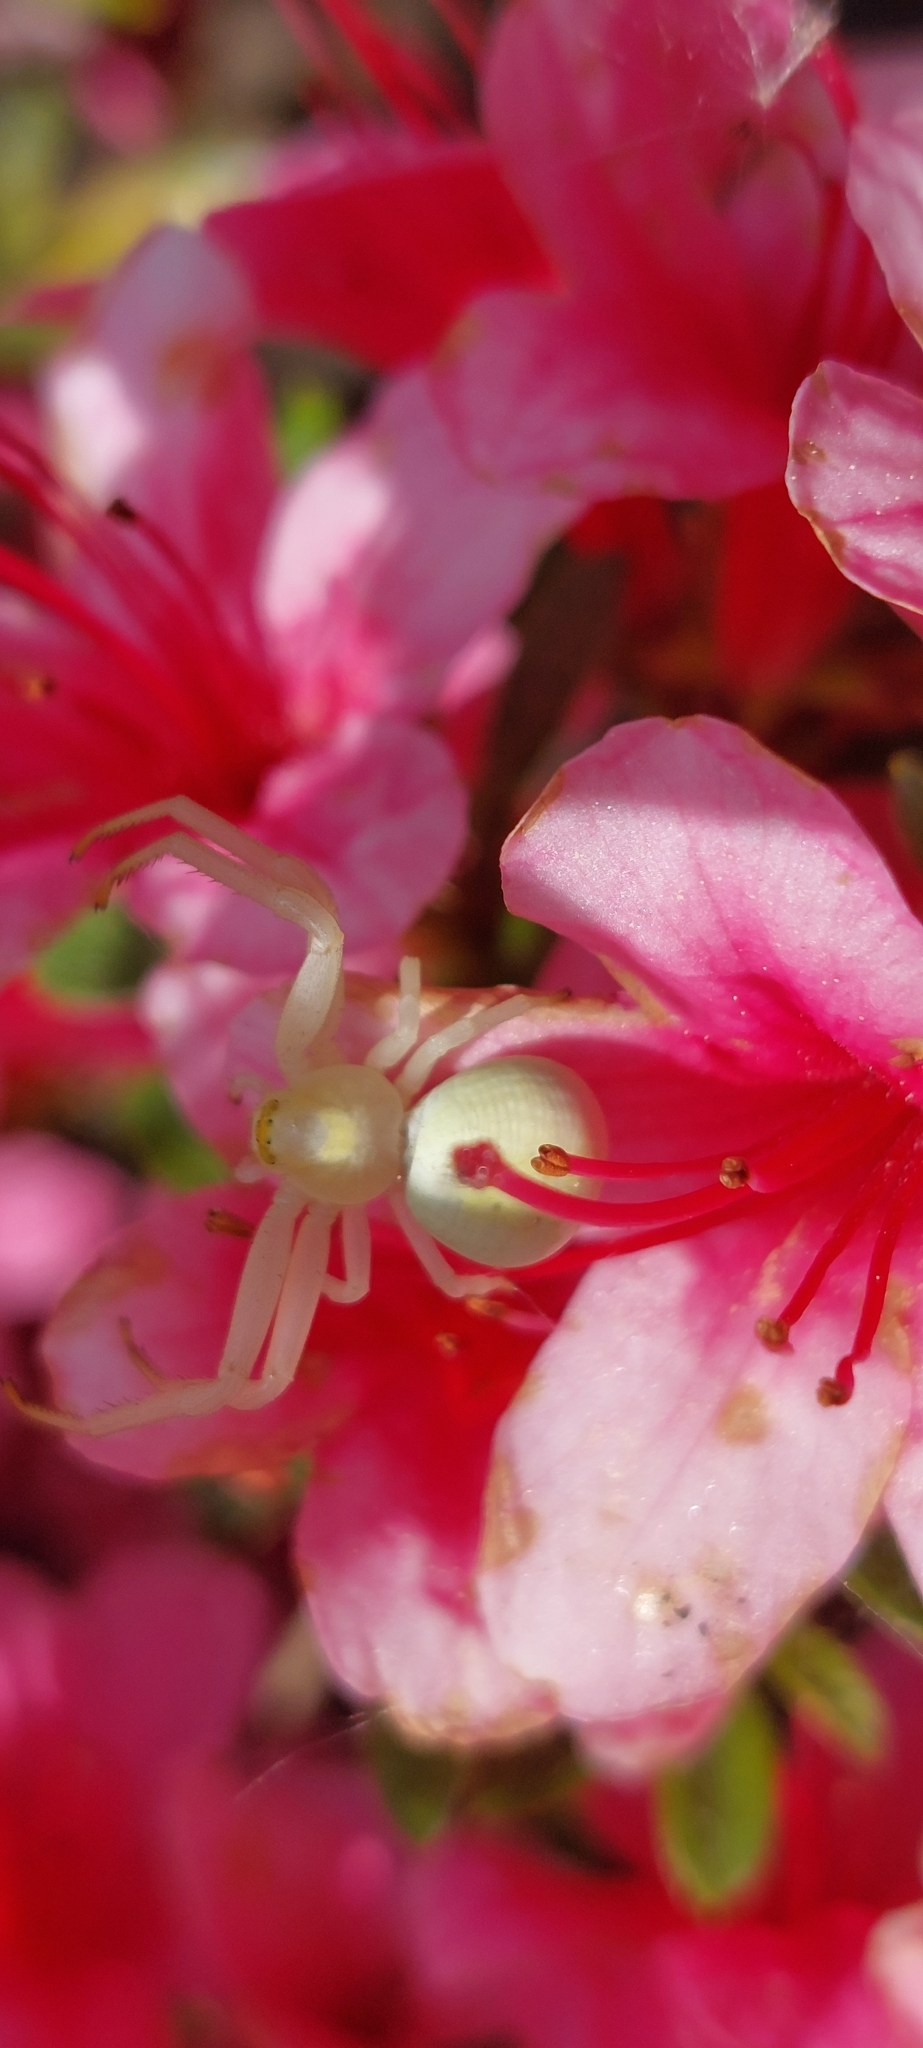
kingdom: Animalia
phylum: Arthropoda
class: Arachnida
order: Araneae
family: Thomisidae
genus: Misumena
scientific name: Misumena vatia
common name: Goldenrod crab spider
